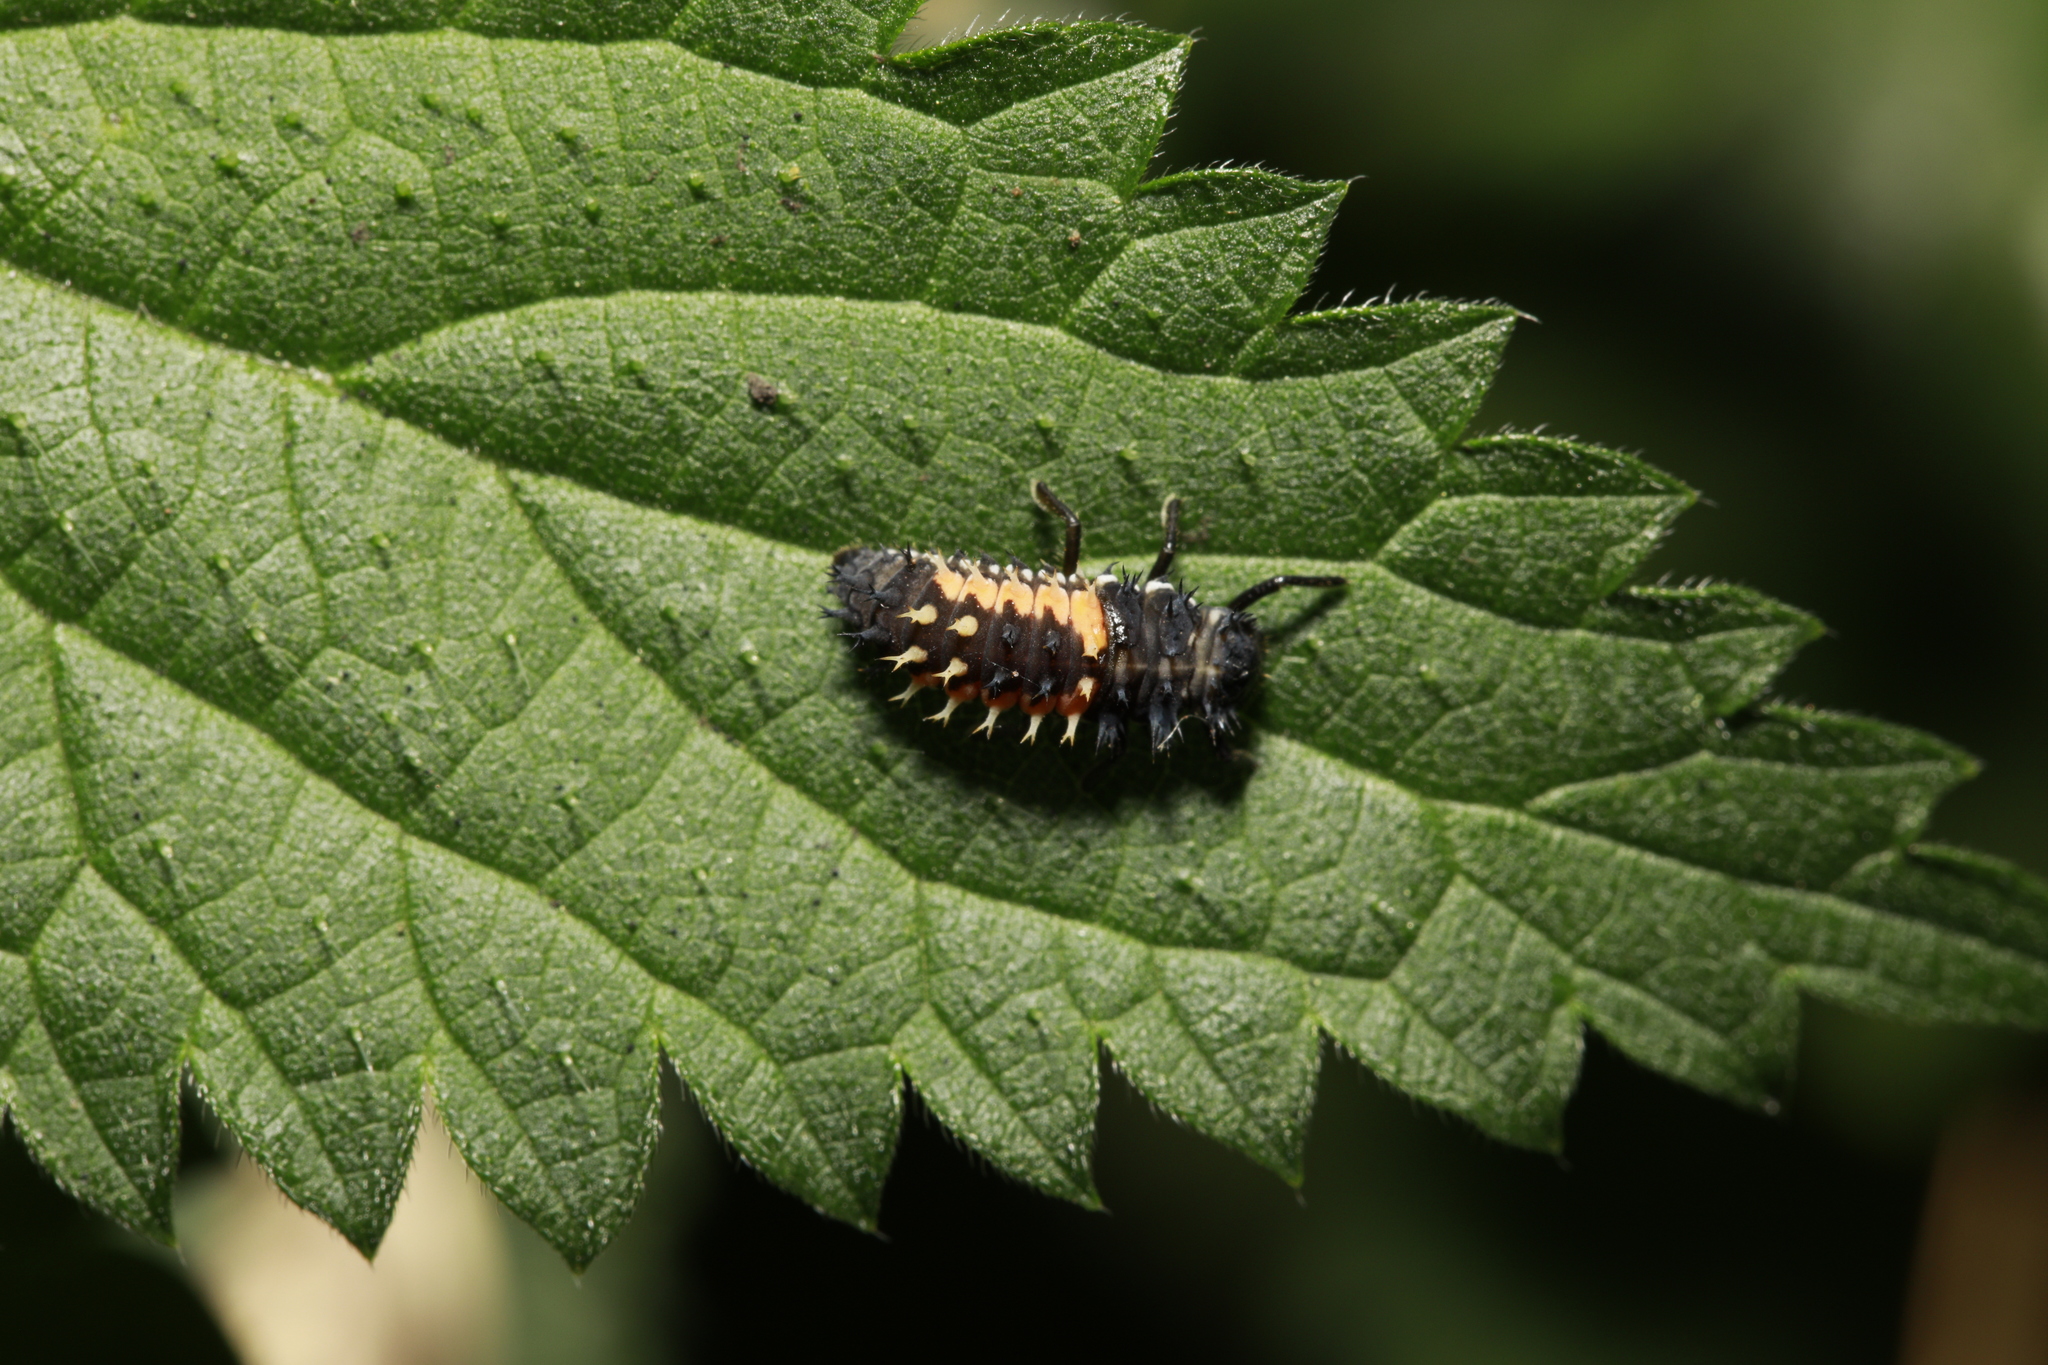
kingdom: Animalia
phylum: Arthropoda
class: Insecta
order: Coleoptera
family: Coccinellidae
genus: Harmonia
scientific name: Harmonia axyridis
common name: Harlequin ladybird
